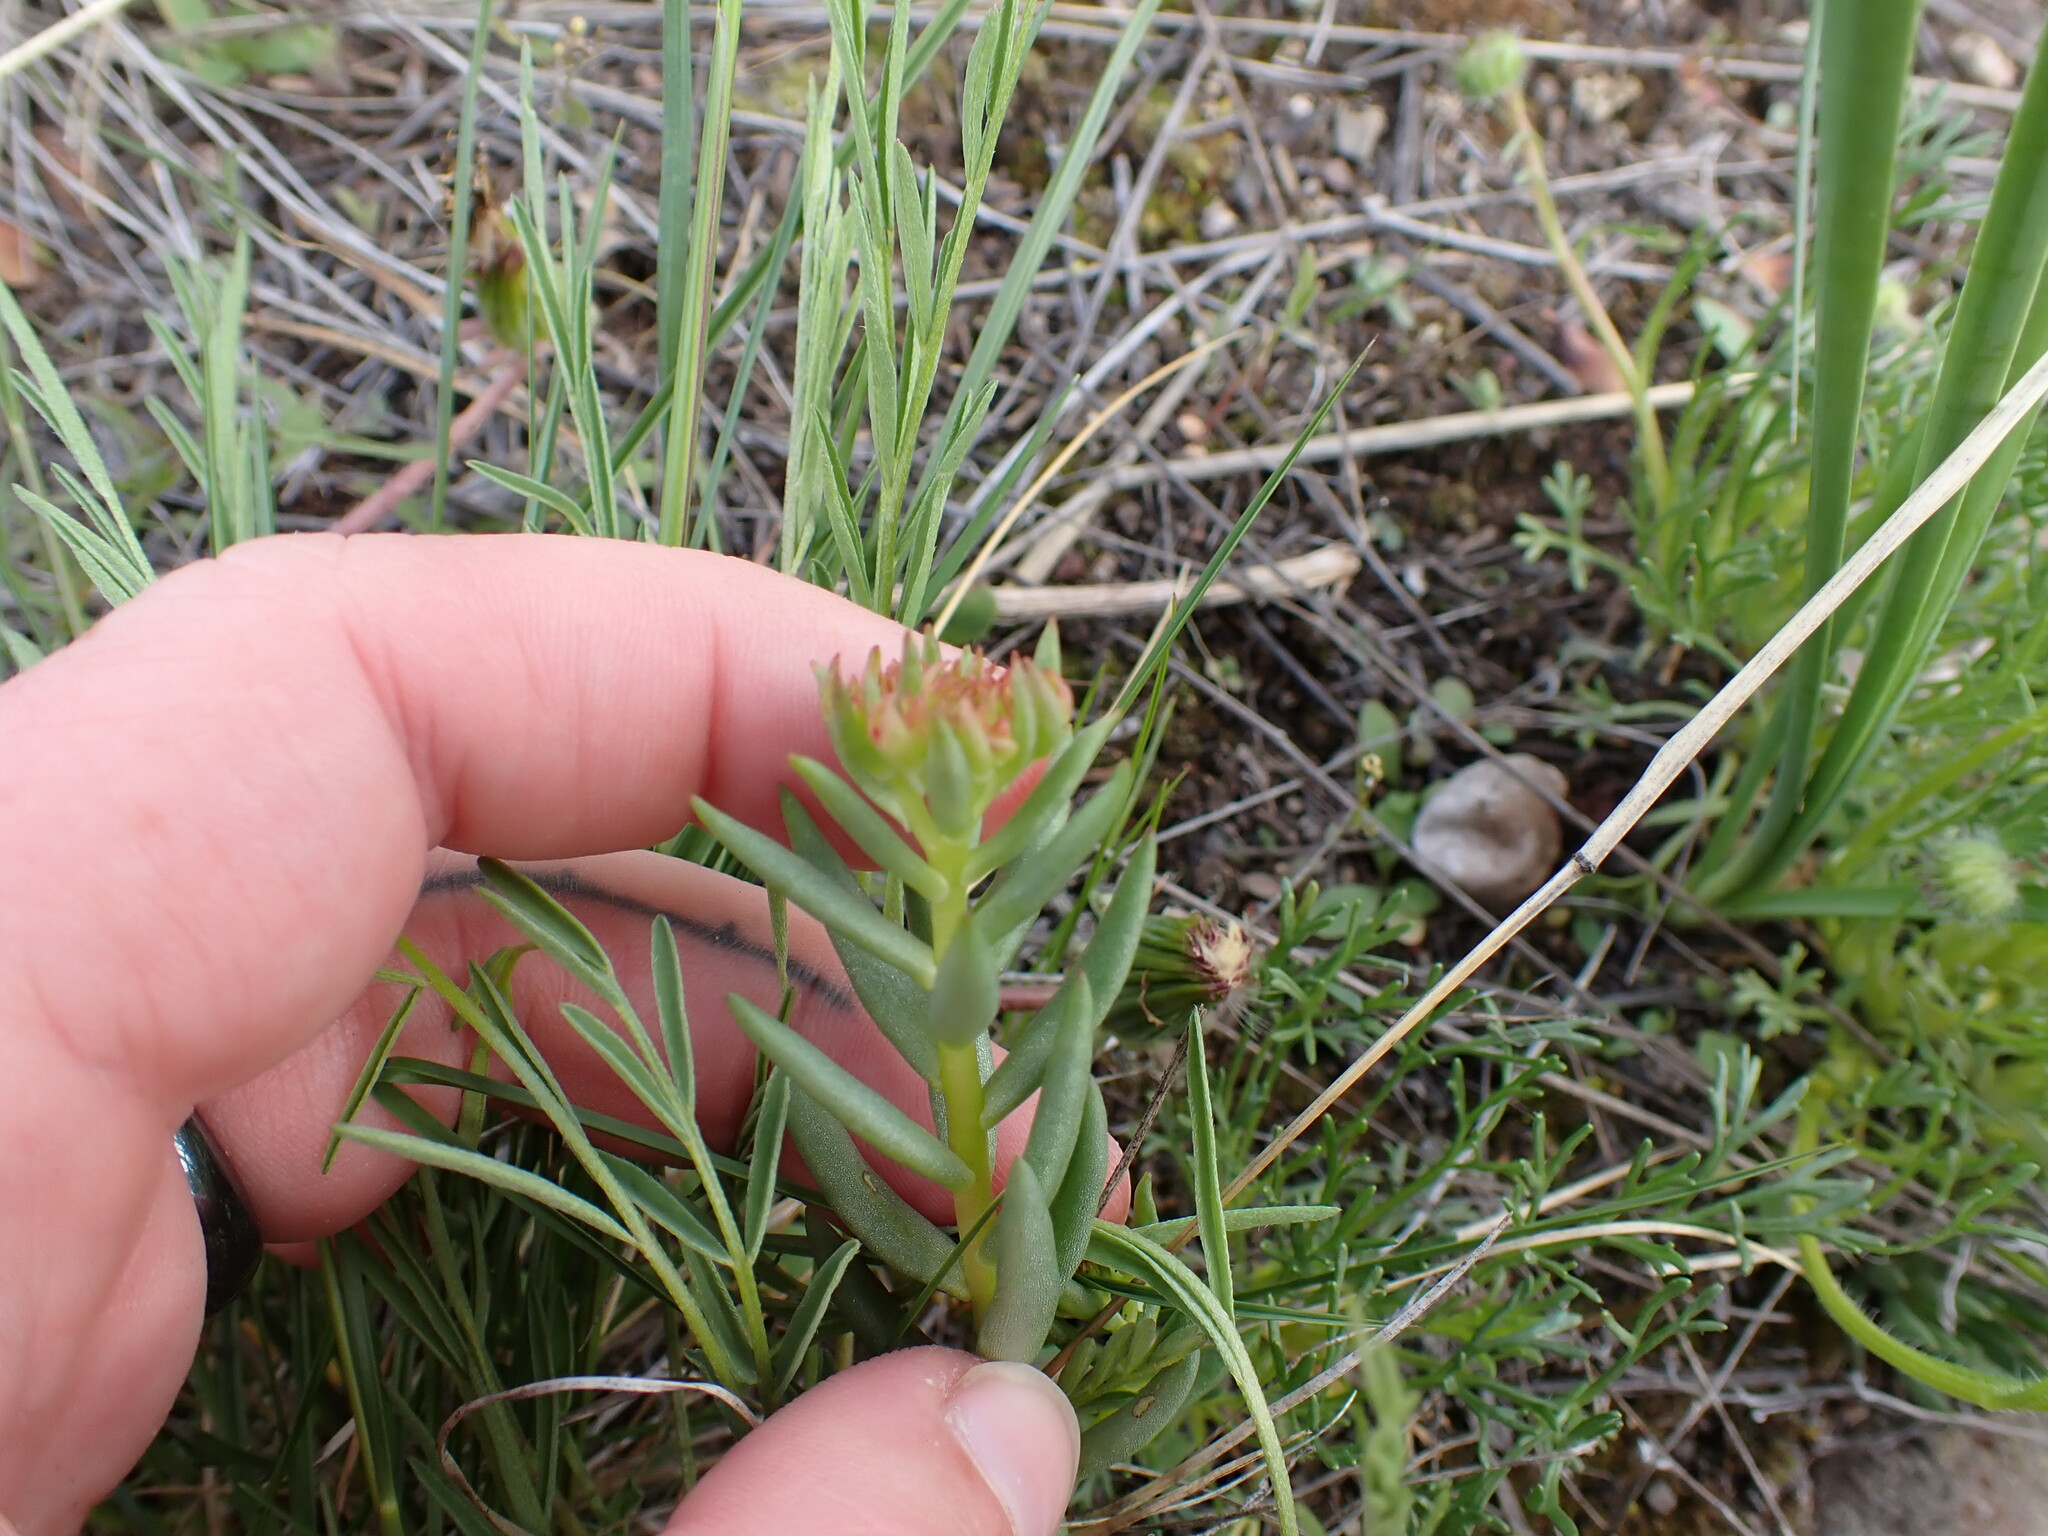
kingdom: Plantae
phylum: Tracheophyta
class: Magnoliopsida
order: Saxifragales
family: Crassulaceae
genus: Sedum
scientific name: Sedum lanceolatum
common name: Common stonecrop
